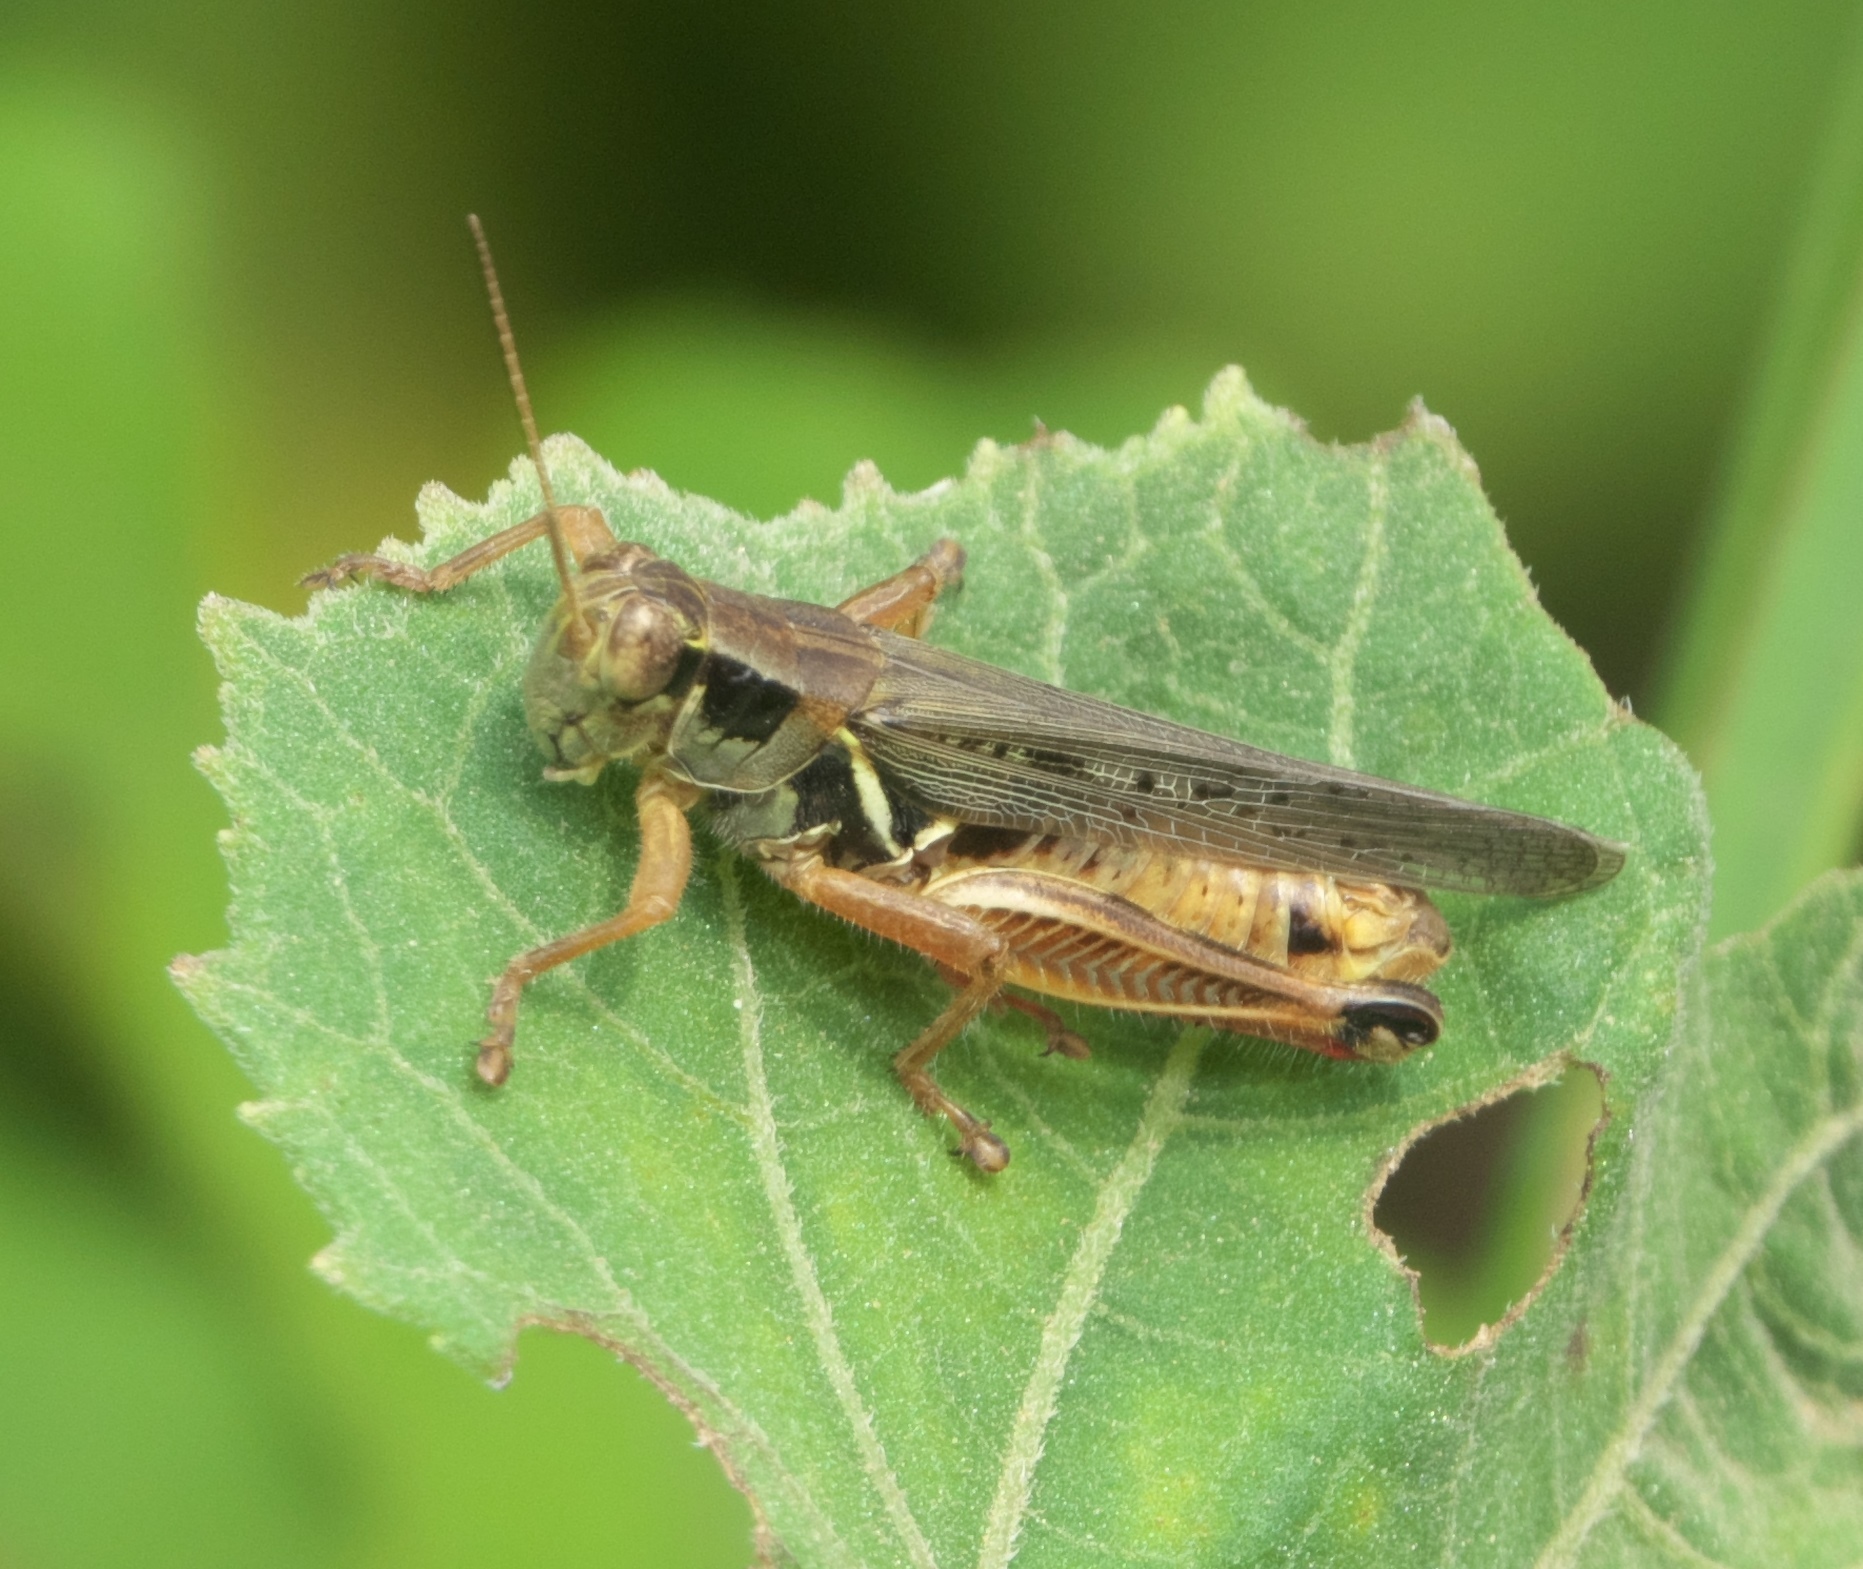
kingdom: Animalia
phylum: Arthropoda
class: Insecta
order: Orthoptera
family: Acrididae
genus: Melanoplus
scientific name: Melanoplus femurrubrum
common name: Red-legged grasshopper
